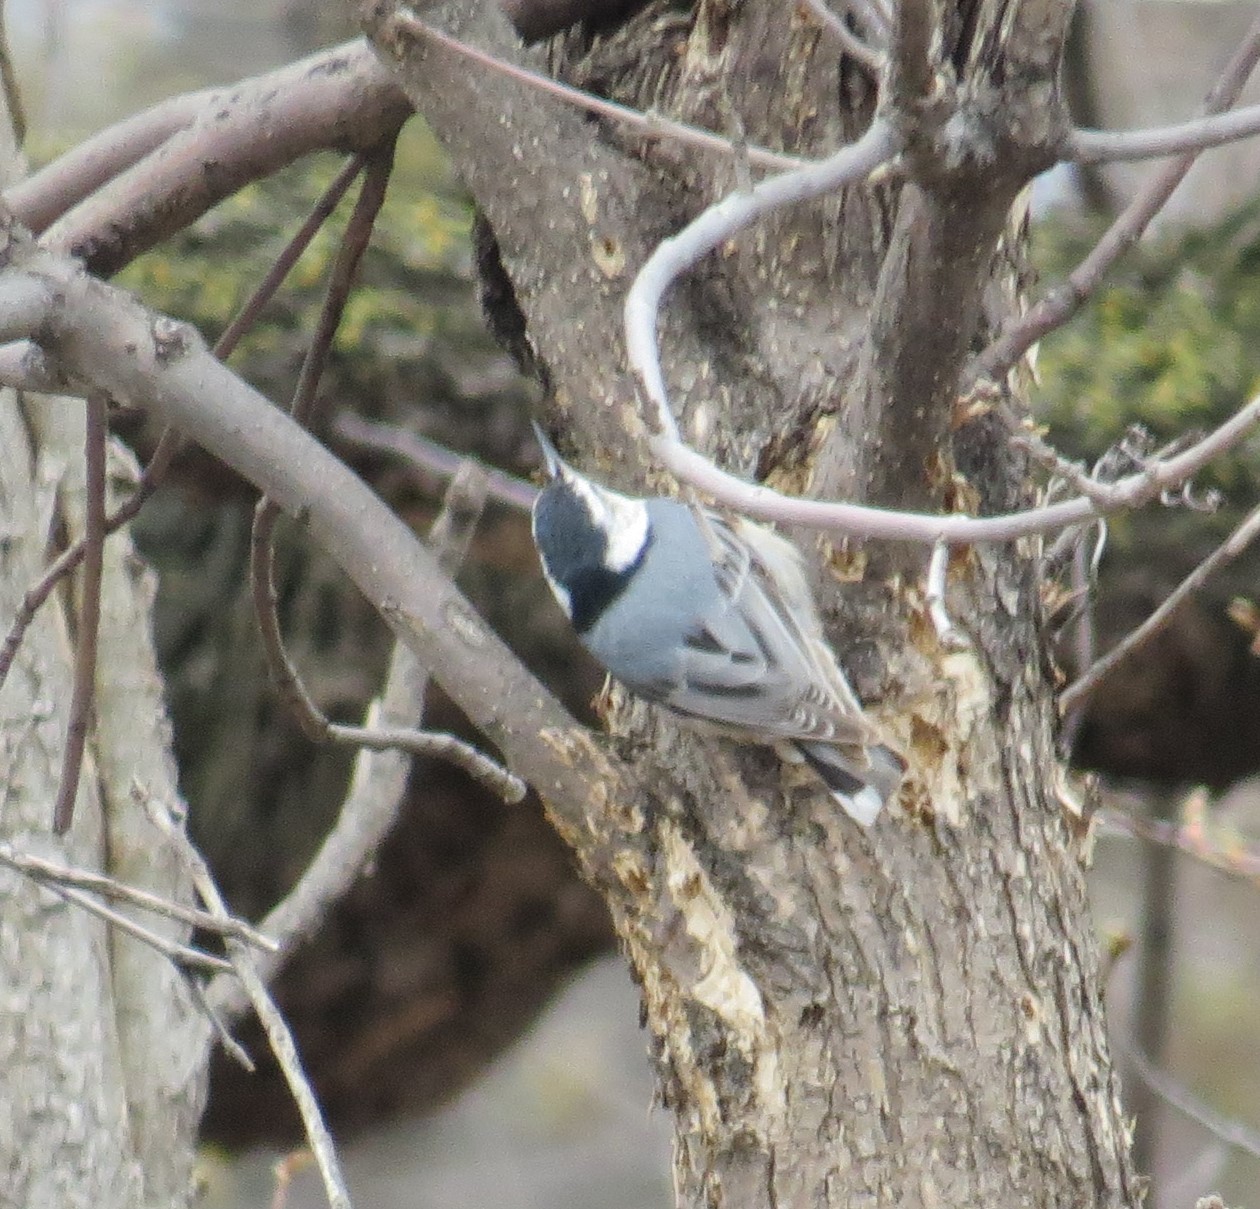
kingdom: Animalia
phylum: Chordata
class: Aves
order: Passeriformes
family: Sittidae
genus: Sitta
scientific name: Sitta carolinensis
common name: White-breasted nuthatch
